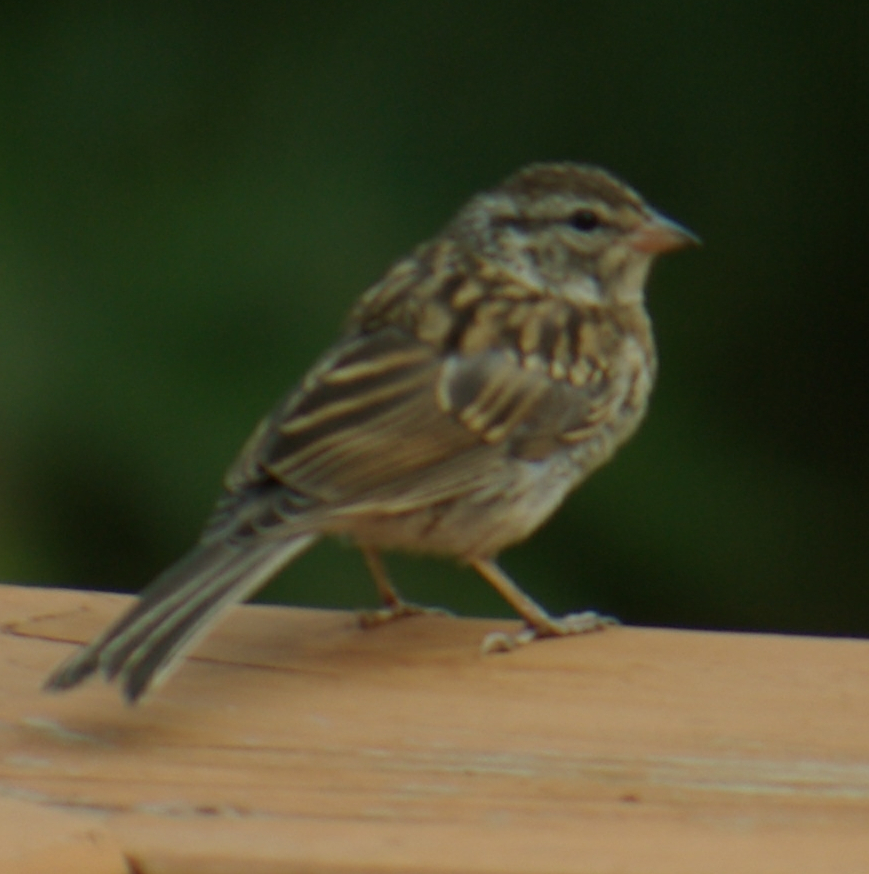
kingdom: Animalia
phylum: Chordata
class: Aves
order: Passeriformes
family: Passerellidae
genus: Spizella
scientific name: Spizella passerina
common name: Chipping sparrow
